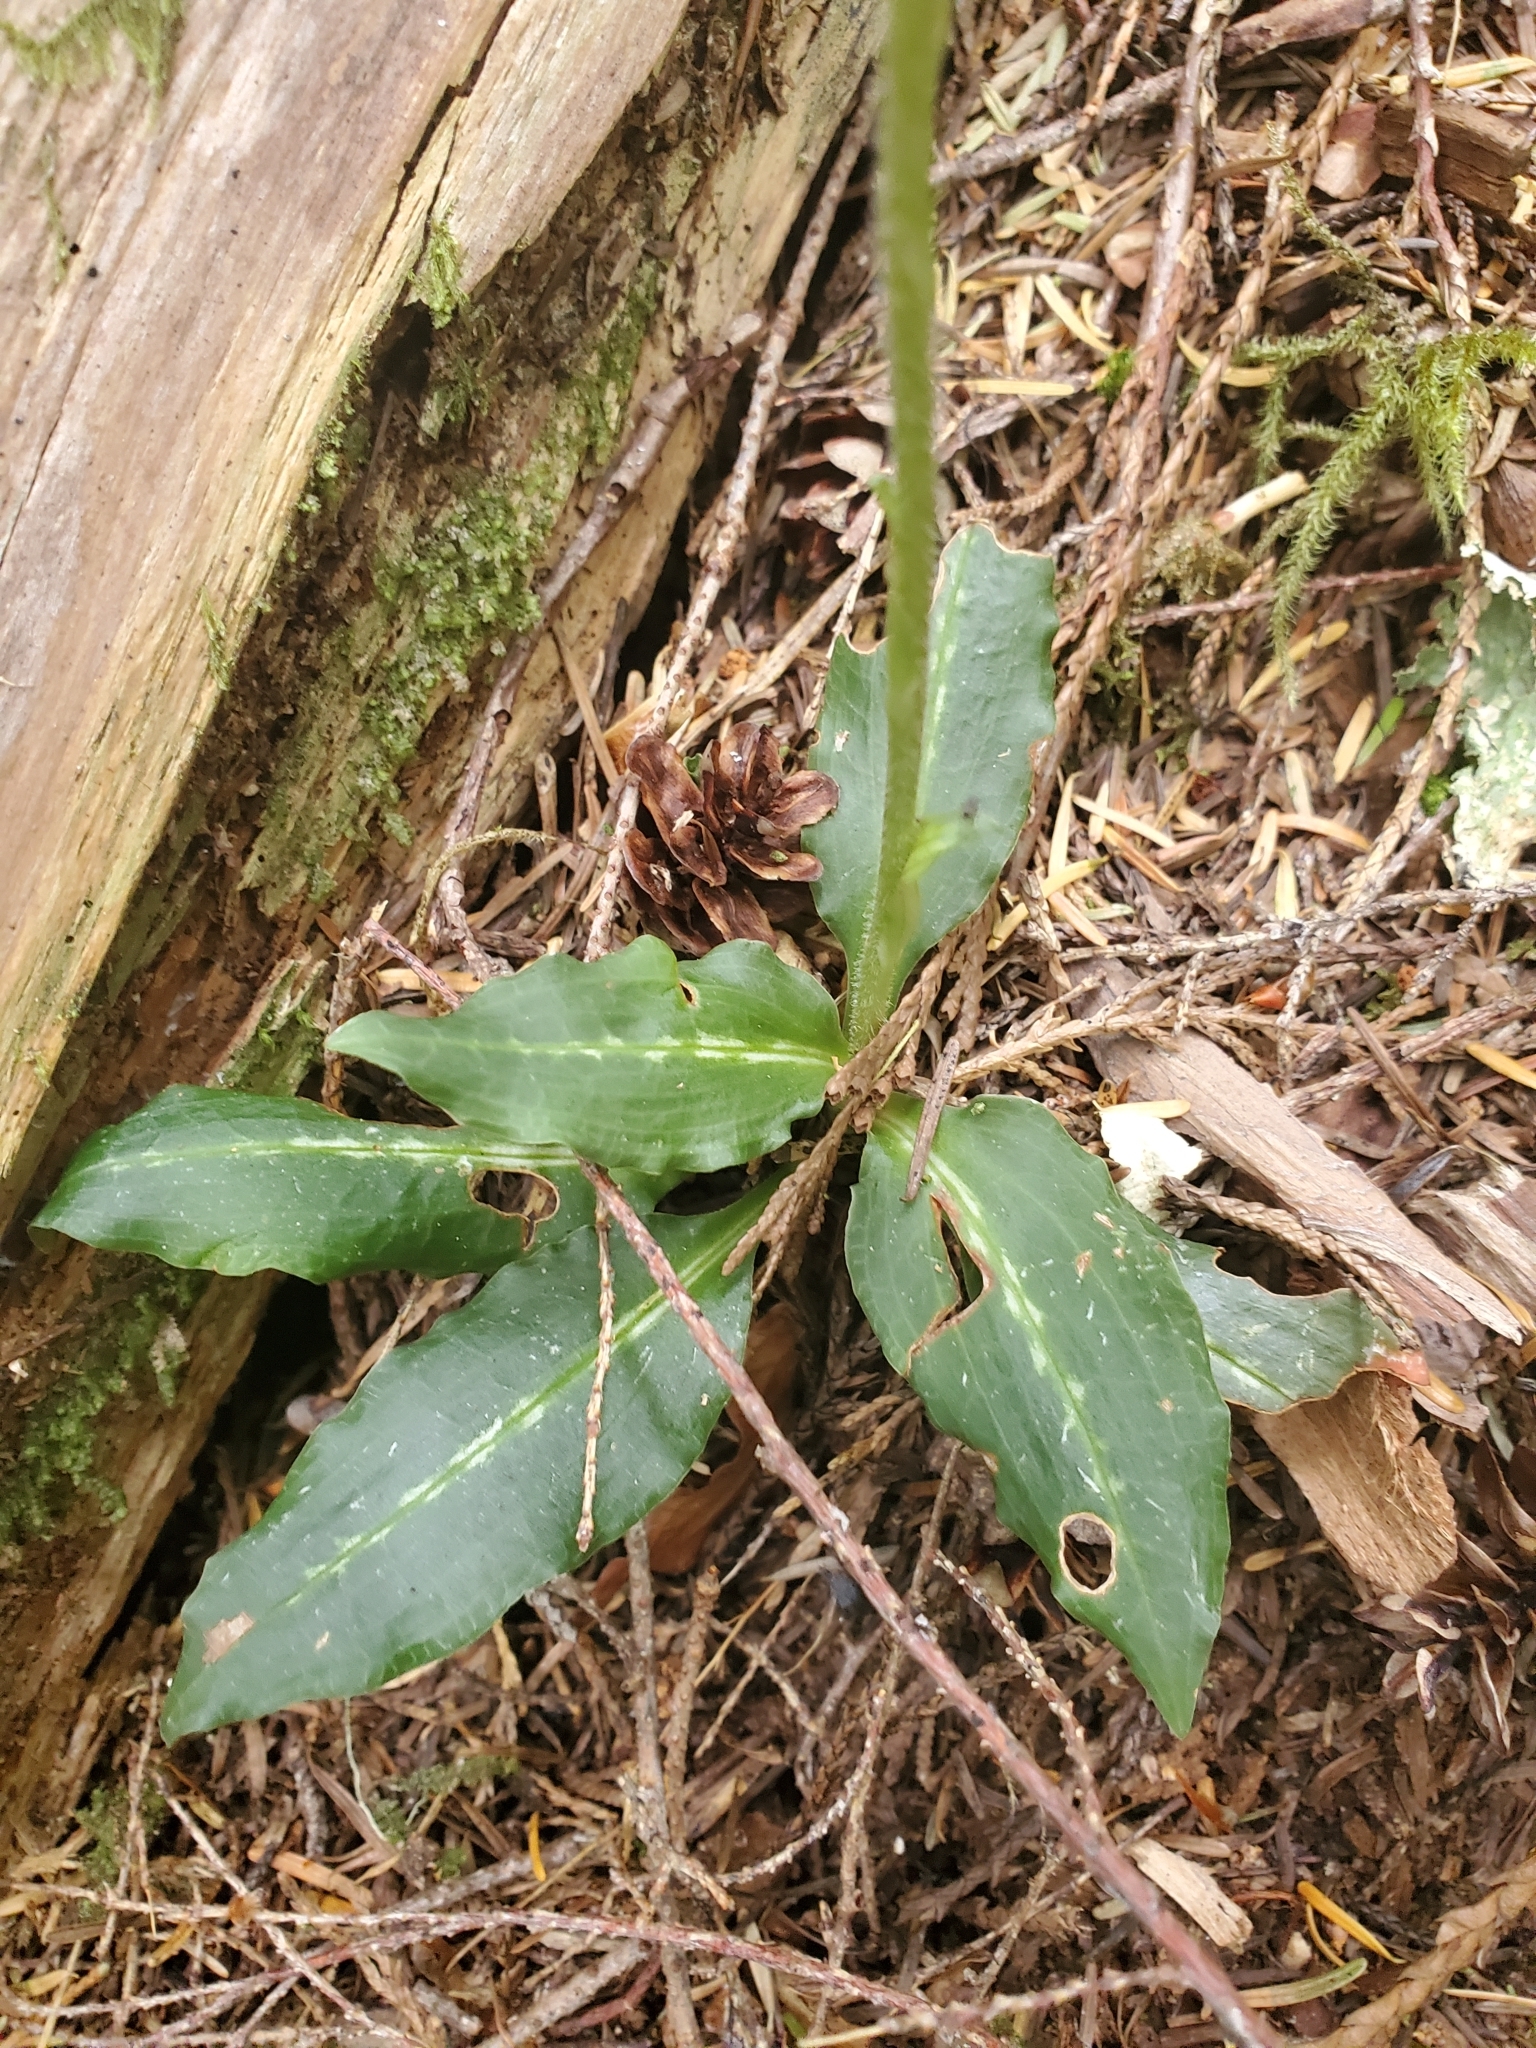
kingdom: Plantae
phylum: Tracheophyta
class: Liliopsida
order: Asparagales
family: Orchidaceae
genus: Goodyera
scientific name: Goodyera oblongifolia
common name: Giant rattlesnake-plantain
